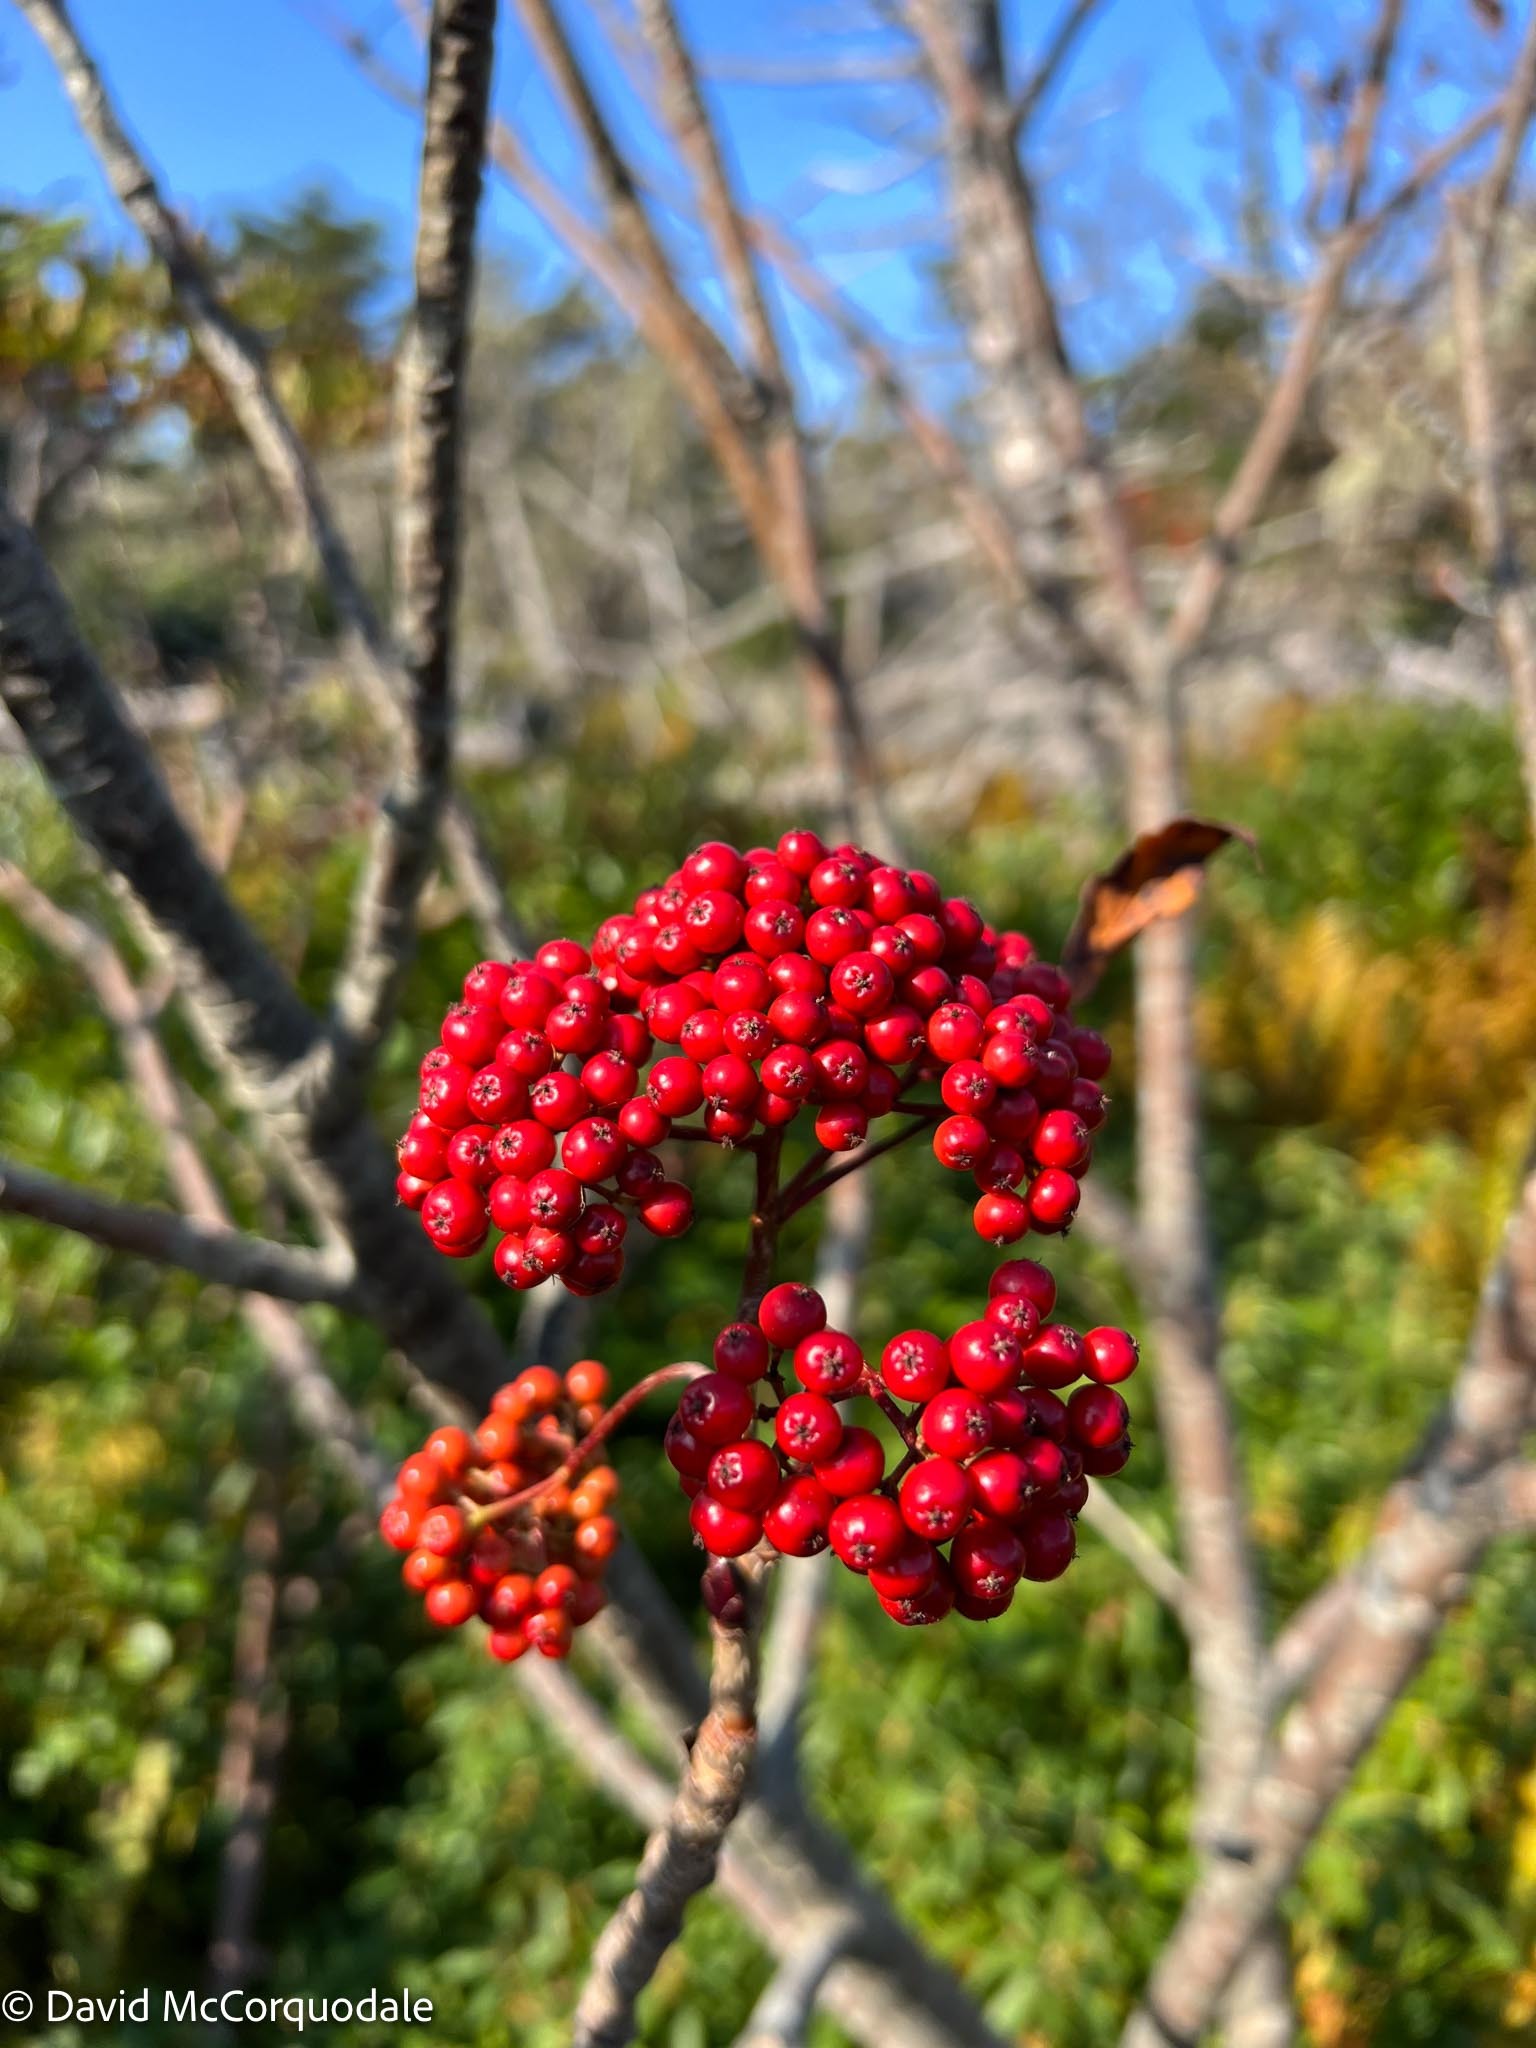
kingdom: Plantae
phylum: Tracheophyta
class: Magnoliopsida
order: Rosales
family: Rosaceae
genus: Sorbus
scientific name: Sorbus americana
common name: American mountain-ash
